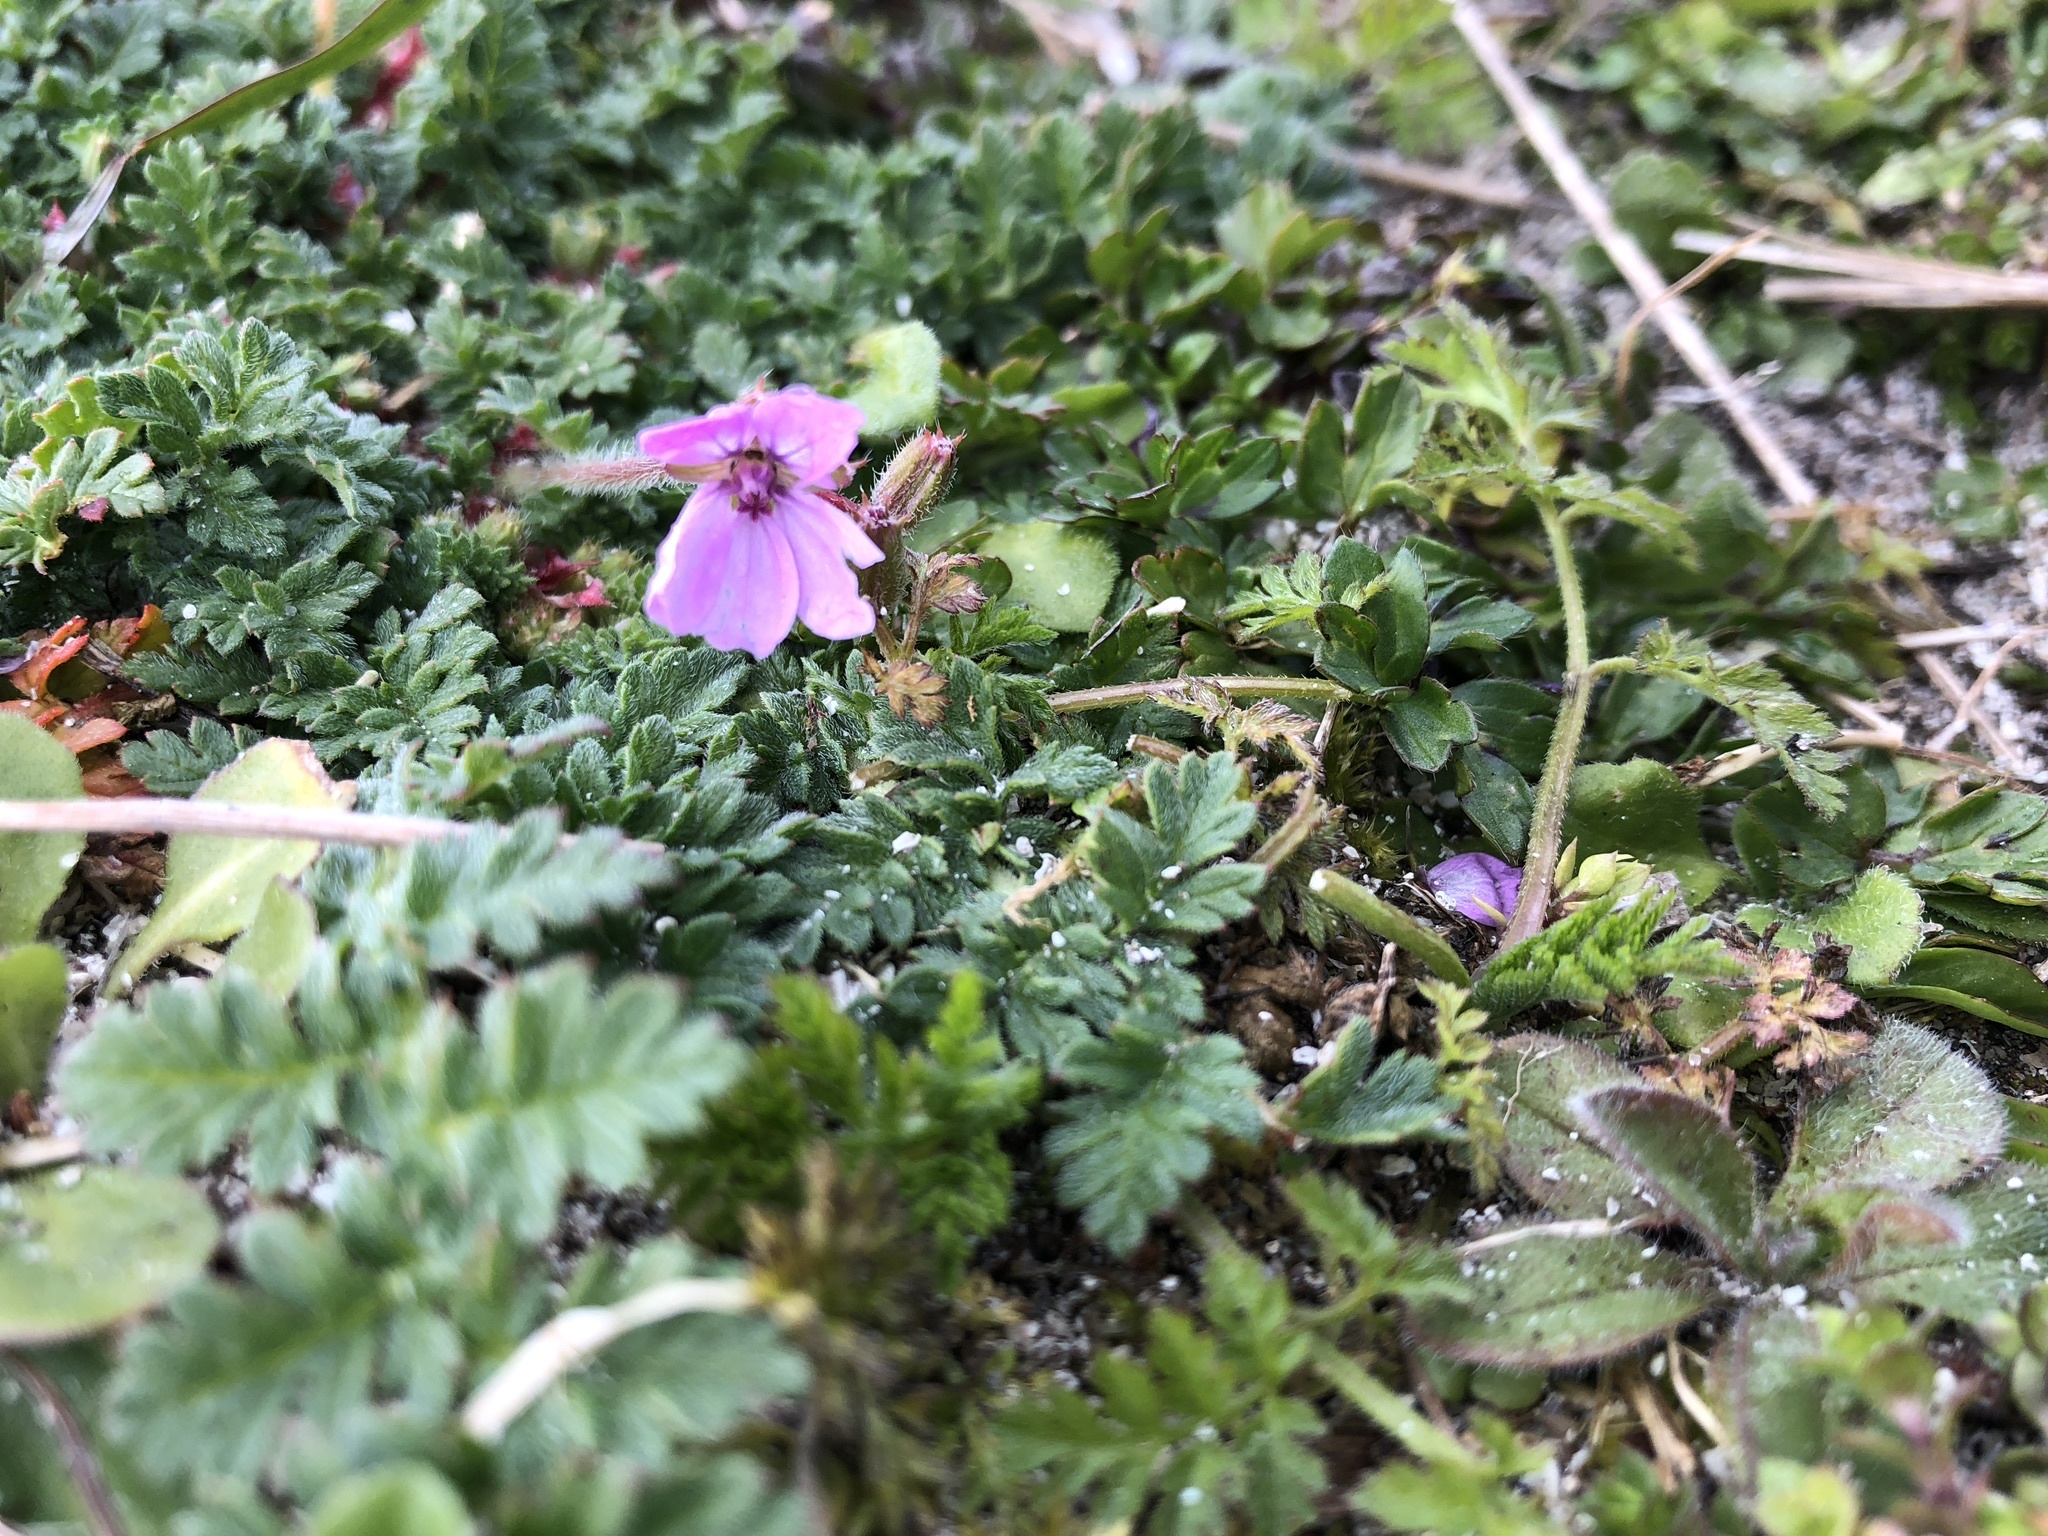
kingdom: Plantae
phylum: Tracheophyta
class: Magnoliopsida
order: Geraniales
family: Geraniaceae
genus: Erodium
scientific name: Erodium cicutarium
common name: Common stork's-bill
